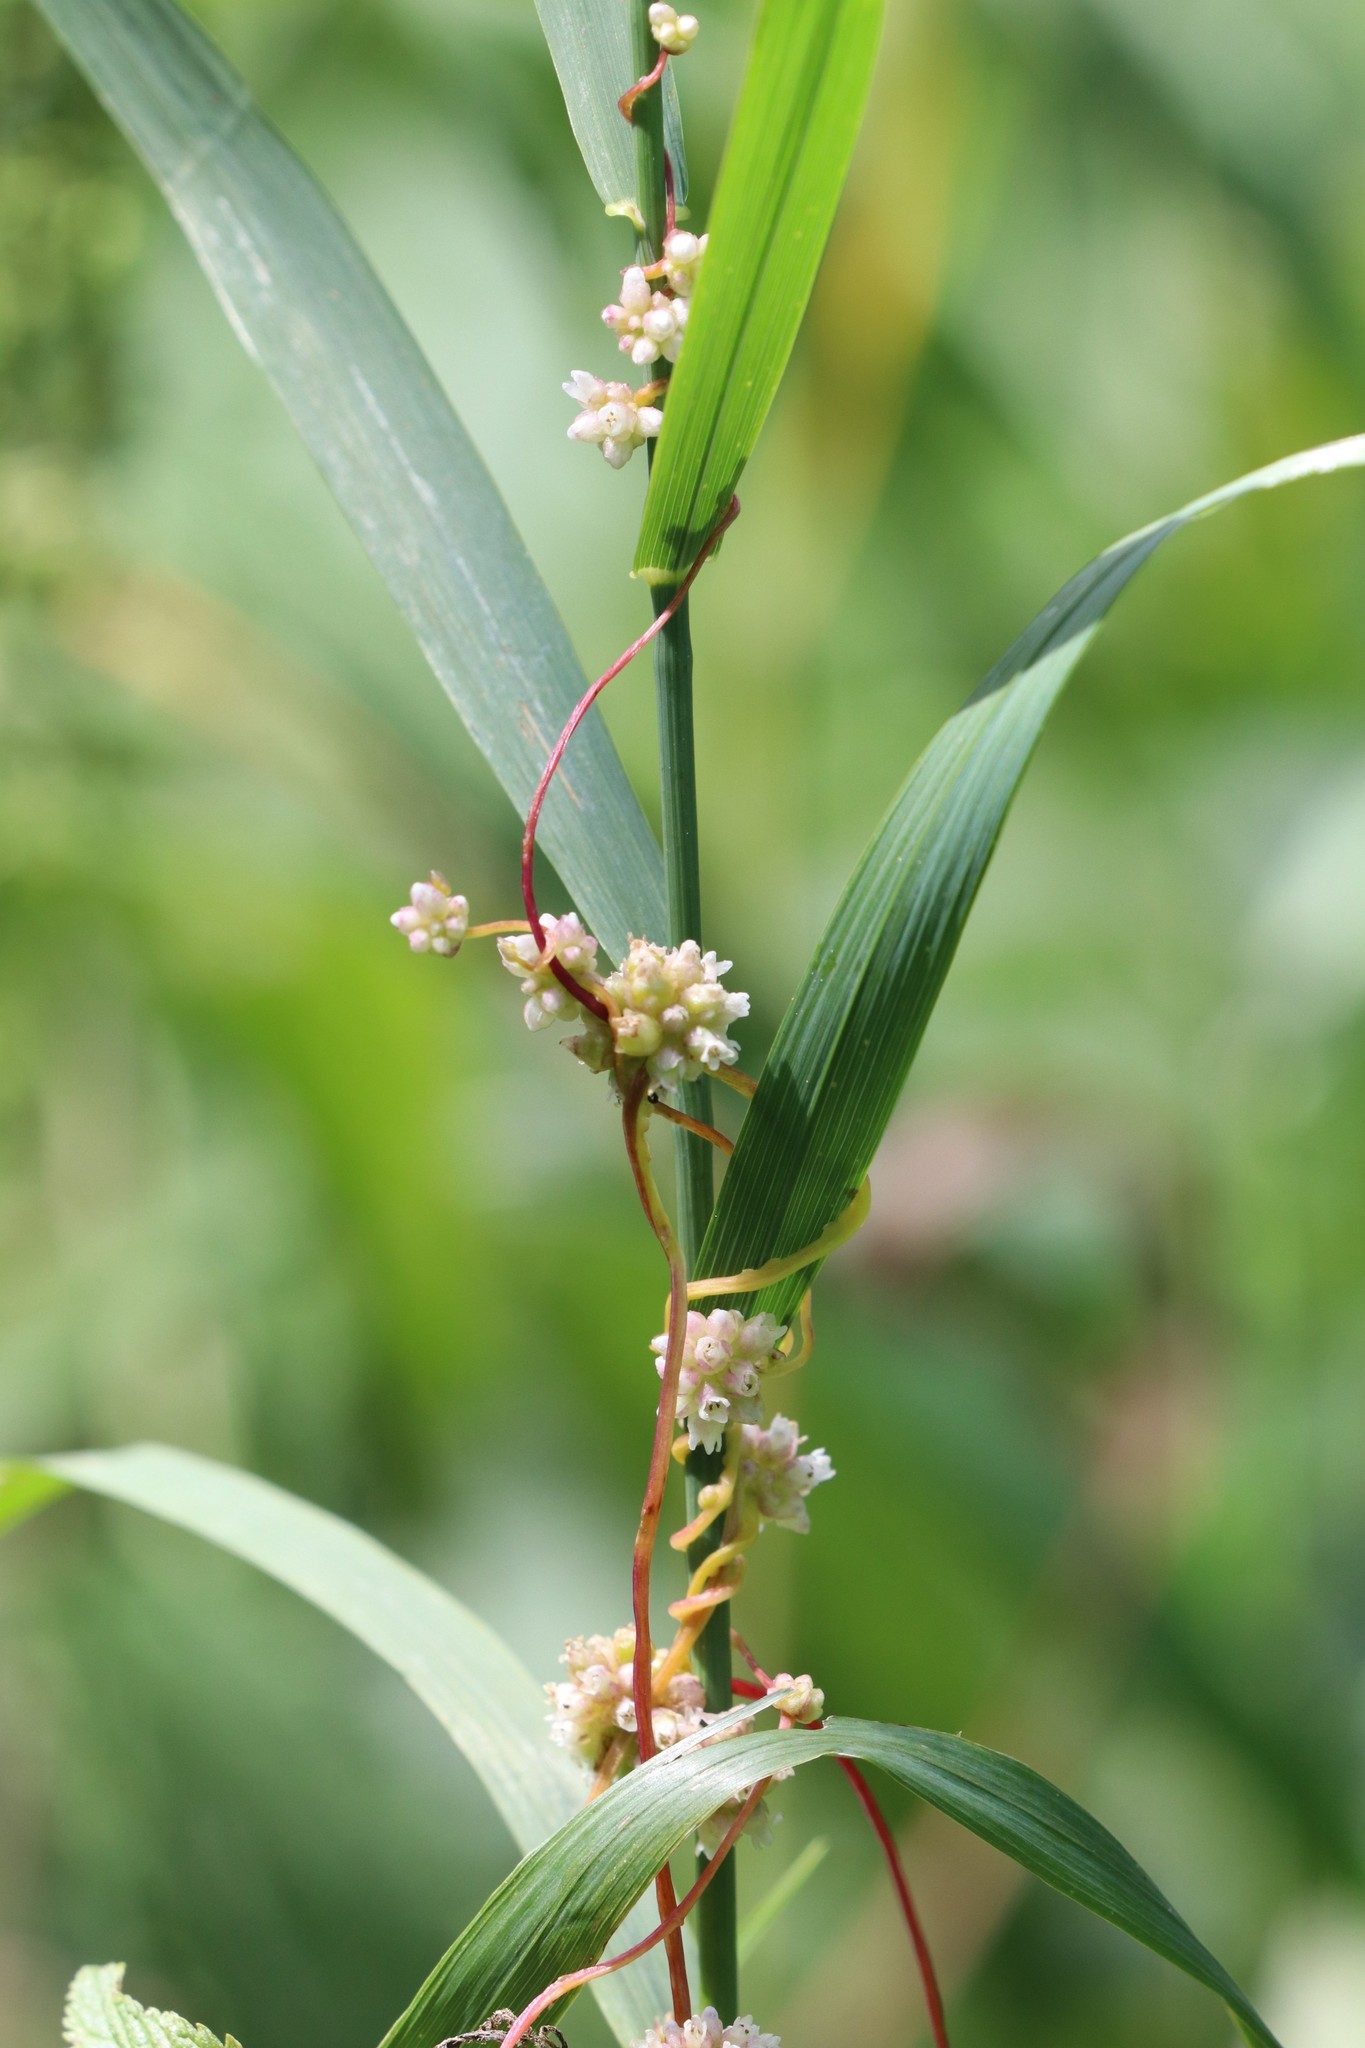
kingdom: Plantae
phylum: Tracheophyta
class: Magnoliopsida
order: Solanales
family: Convolvulaceae
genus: Cuscuta
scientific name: Cuscuta europaea
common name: Greater dodder
